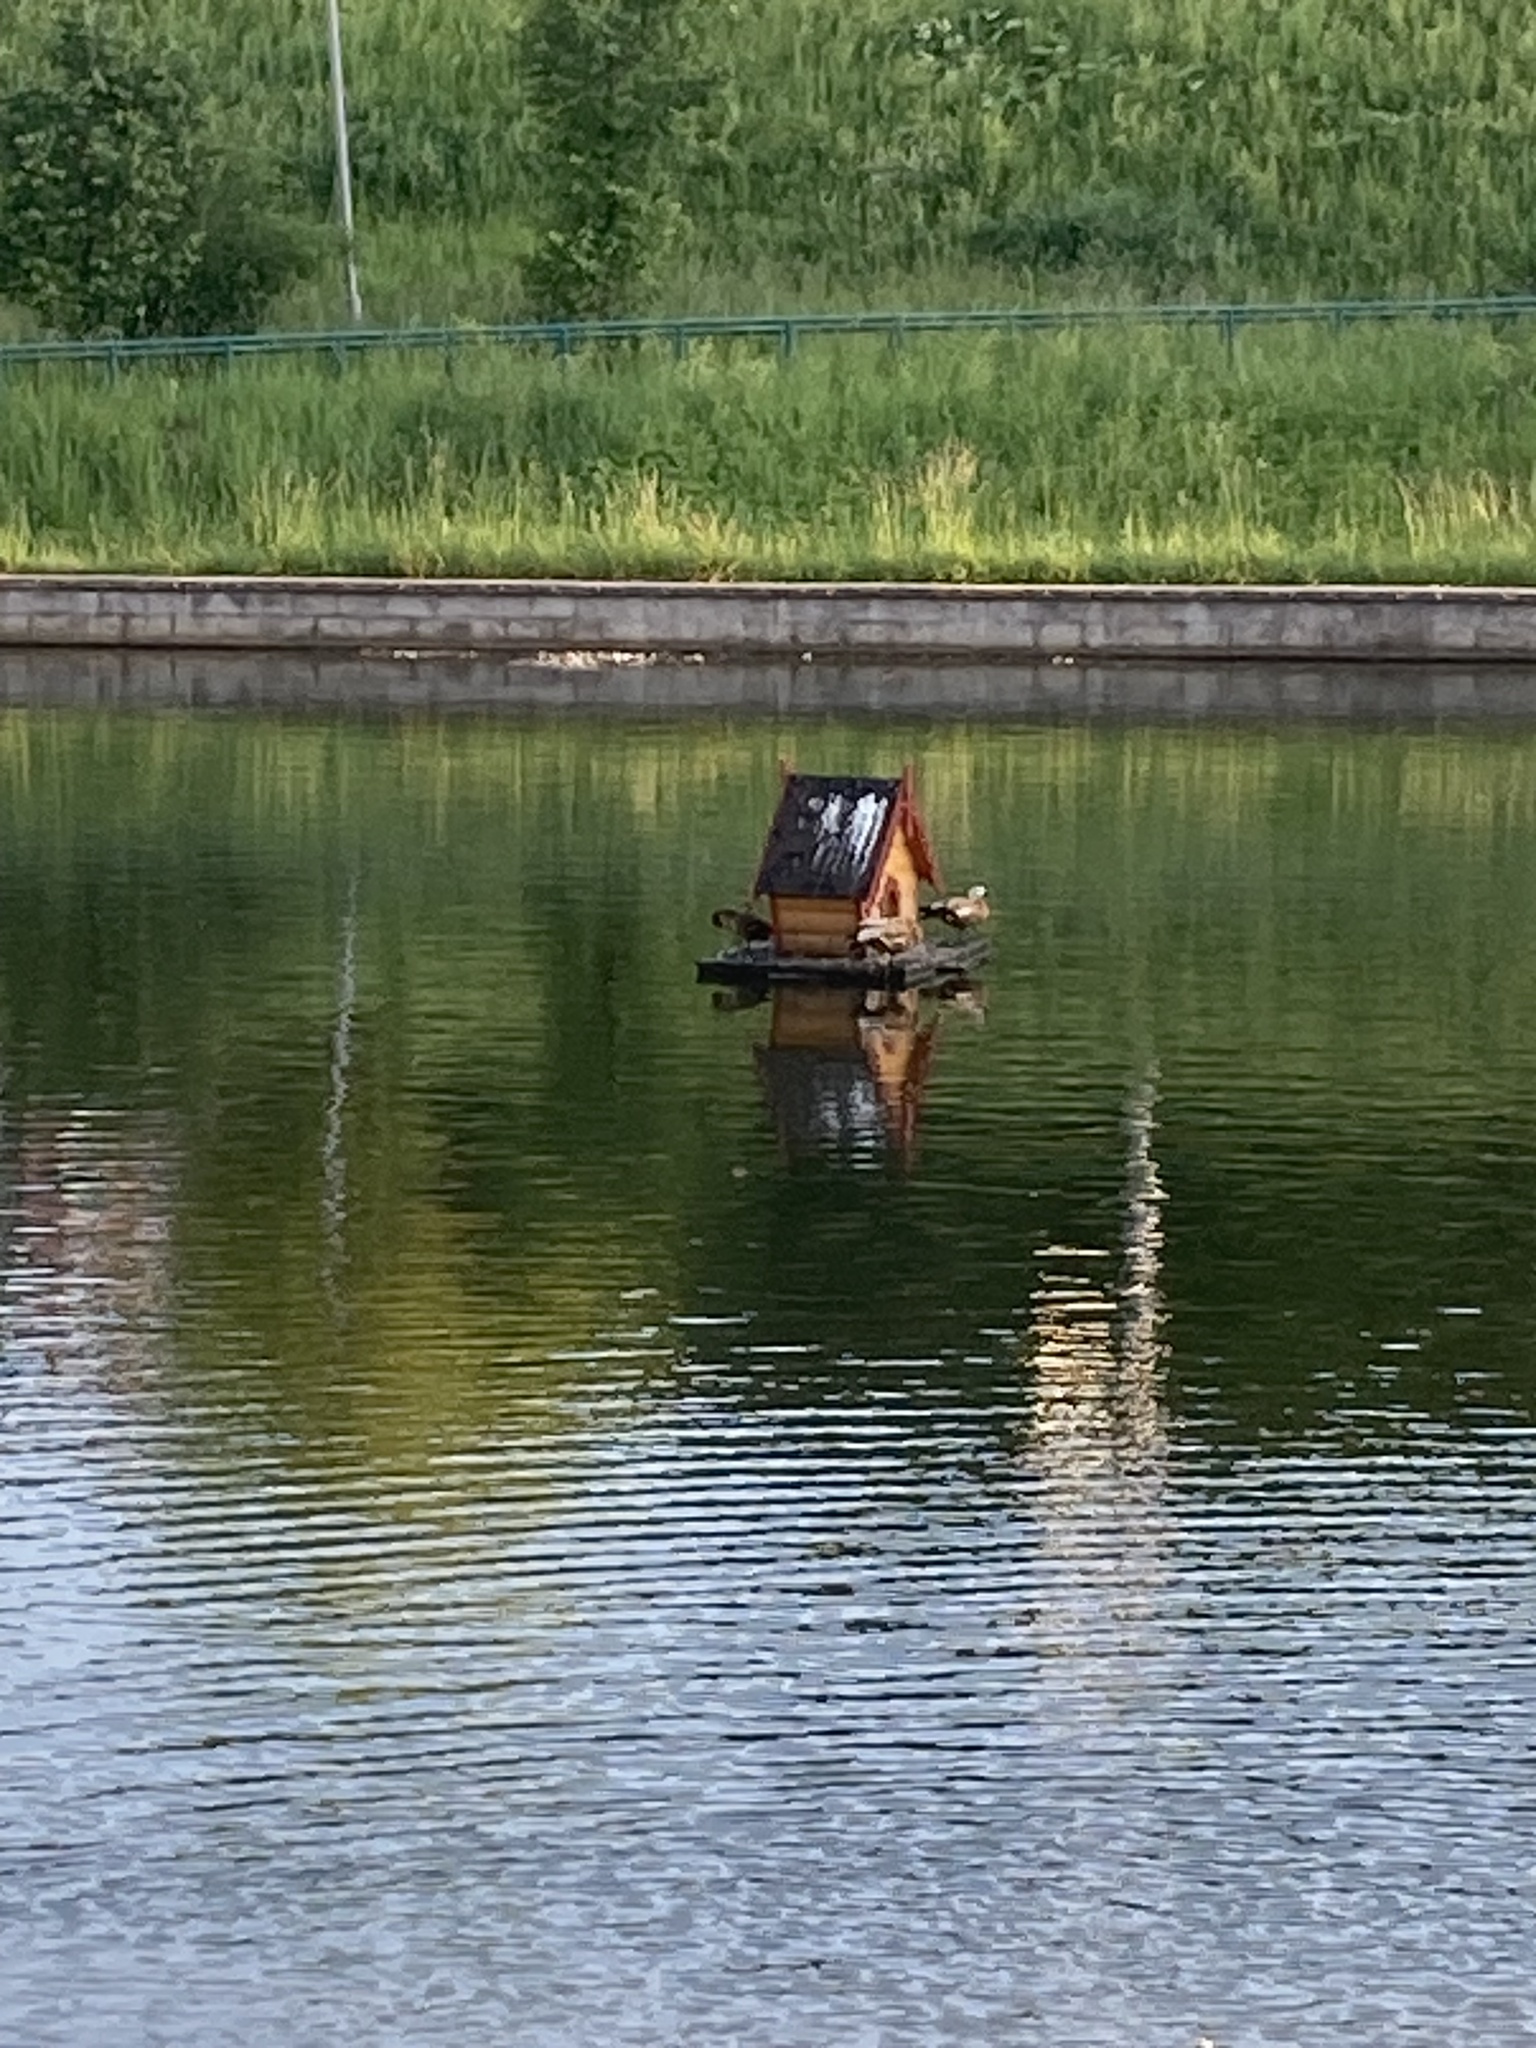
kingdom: Animalia
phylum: Chordata
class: Aves
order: Anseriformes
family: Anatidae
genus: Tadorna
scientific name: Tadorna ferruginea
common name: Ruddy shelduck
